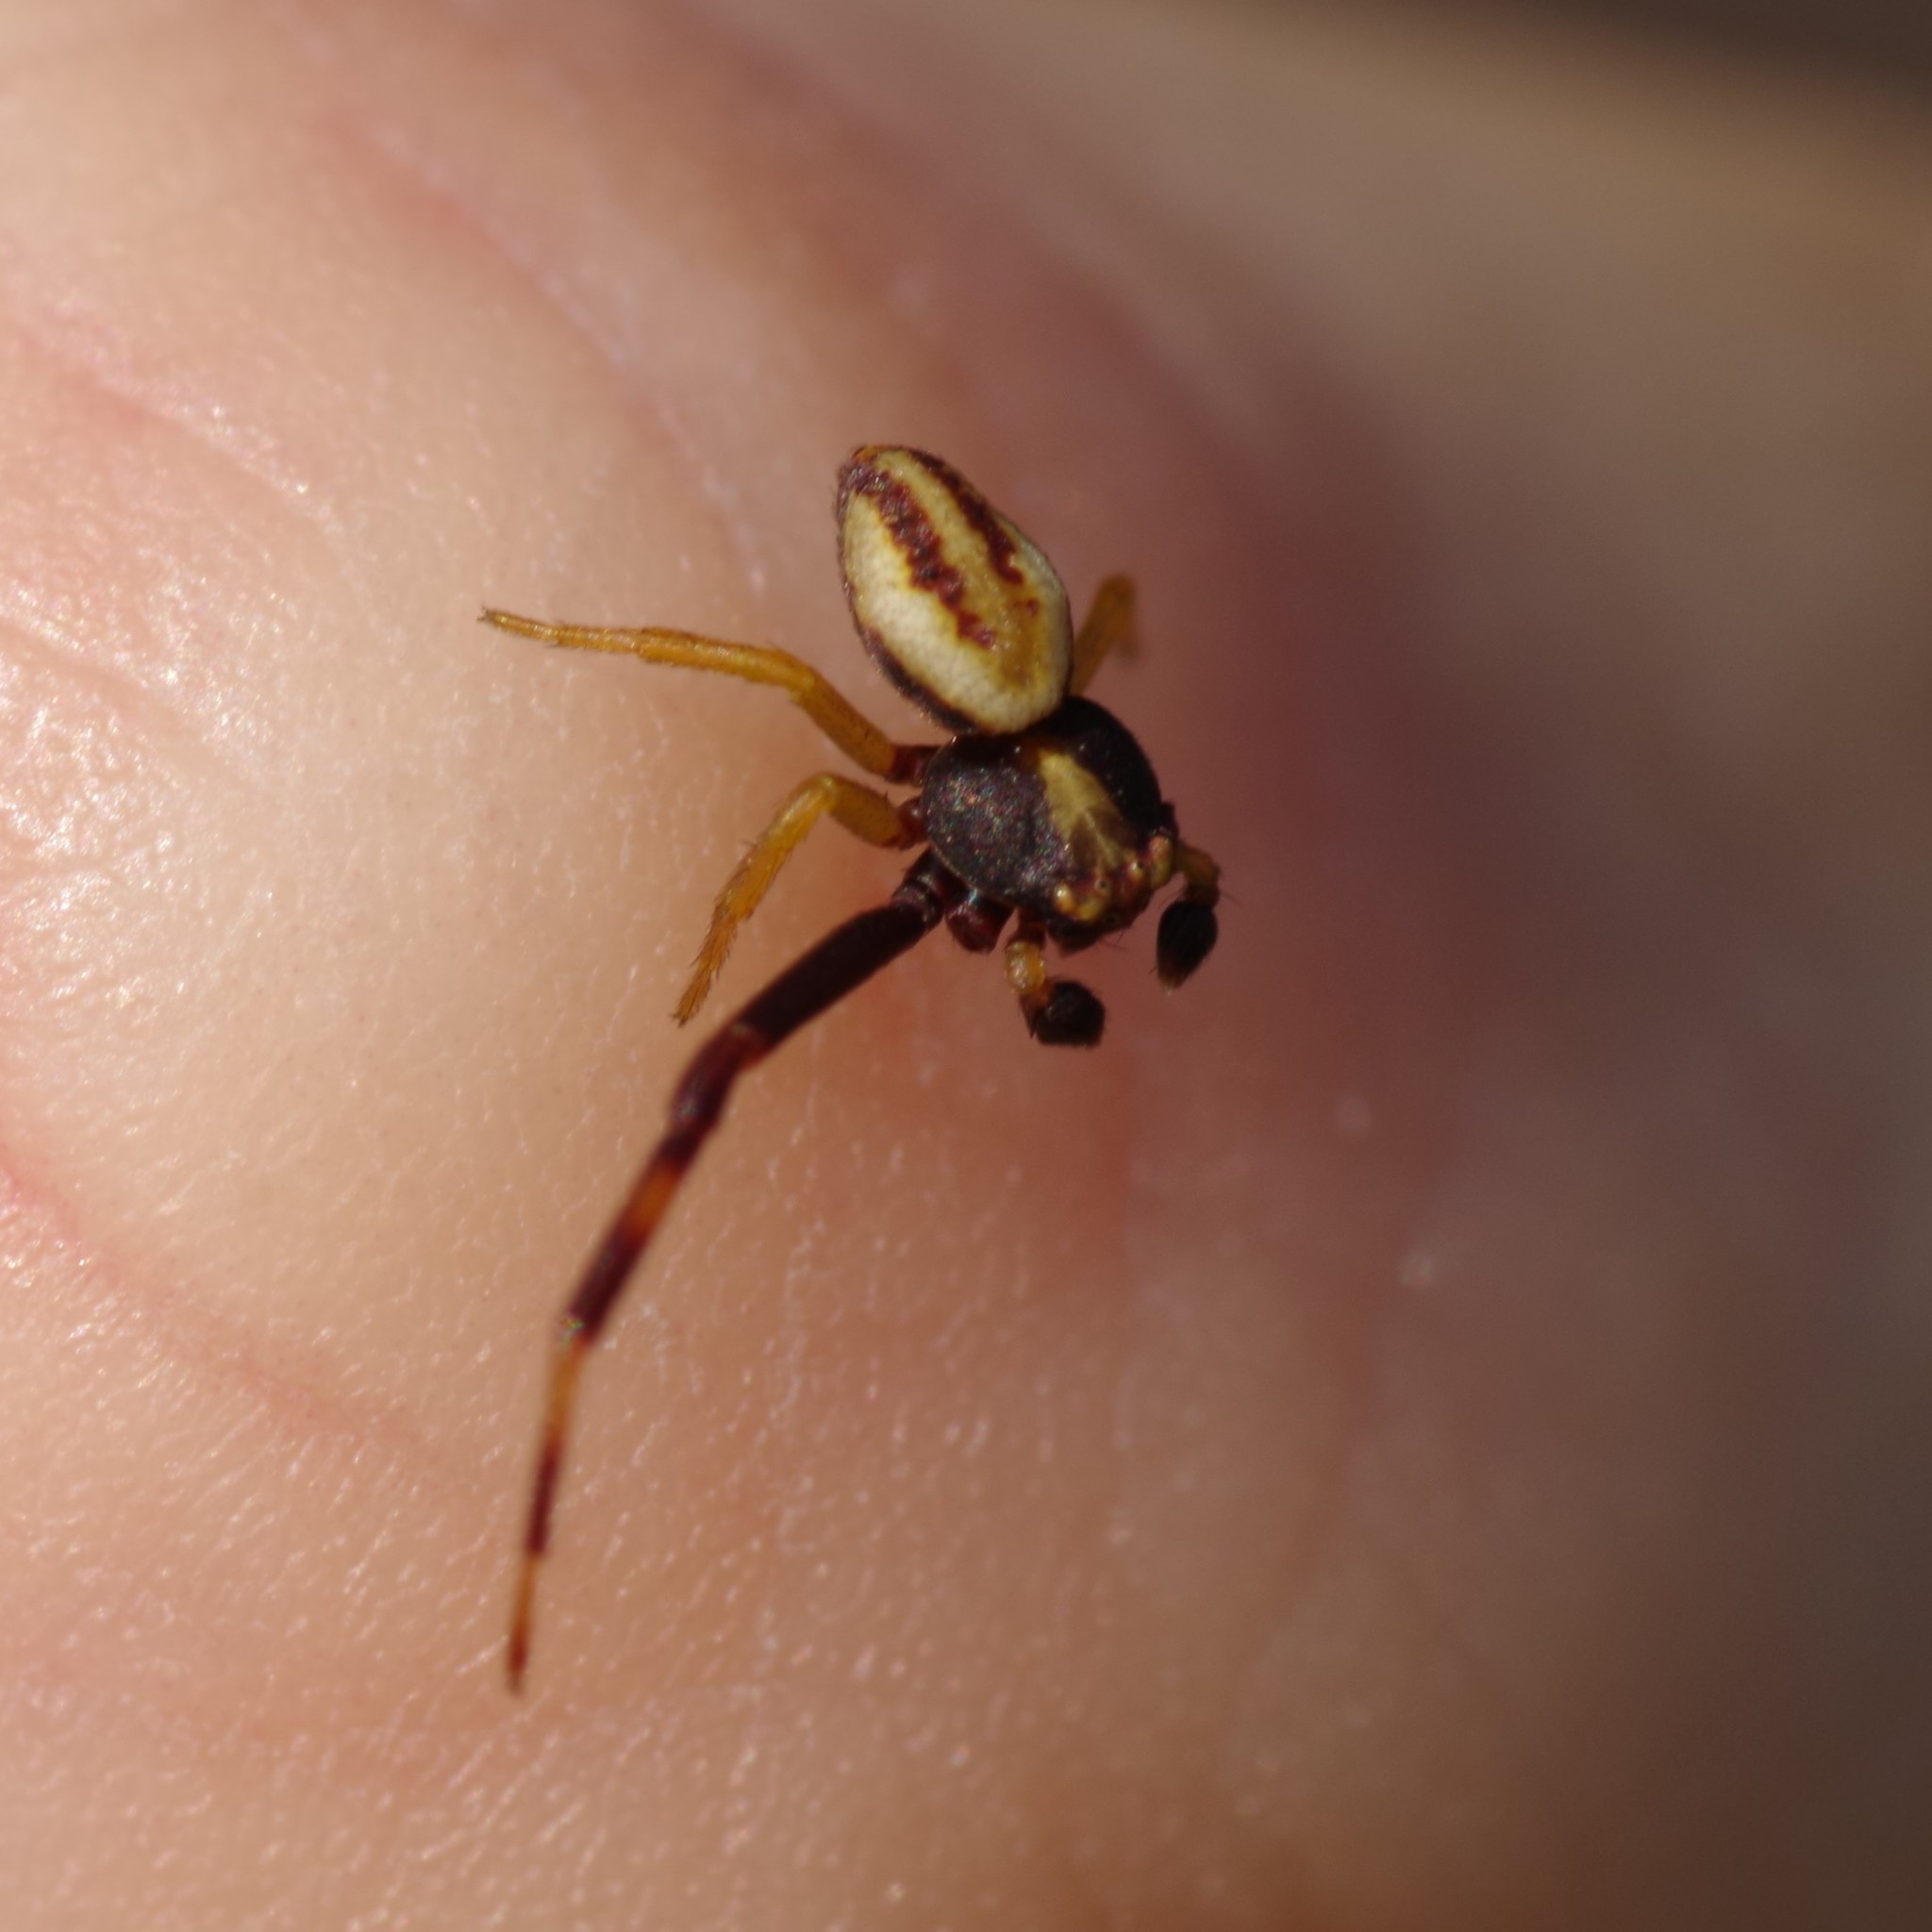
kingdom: Animalia
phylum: Arthropoda
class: Arachnida
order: Araneae
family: Thomisidae
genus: Misumena
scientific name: Misumena vatia
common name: Goldenrod crab spider
